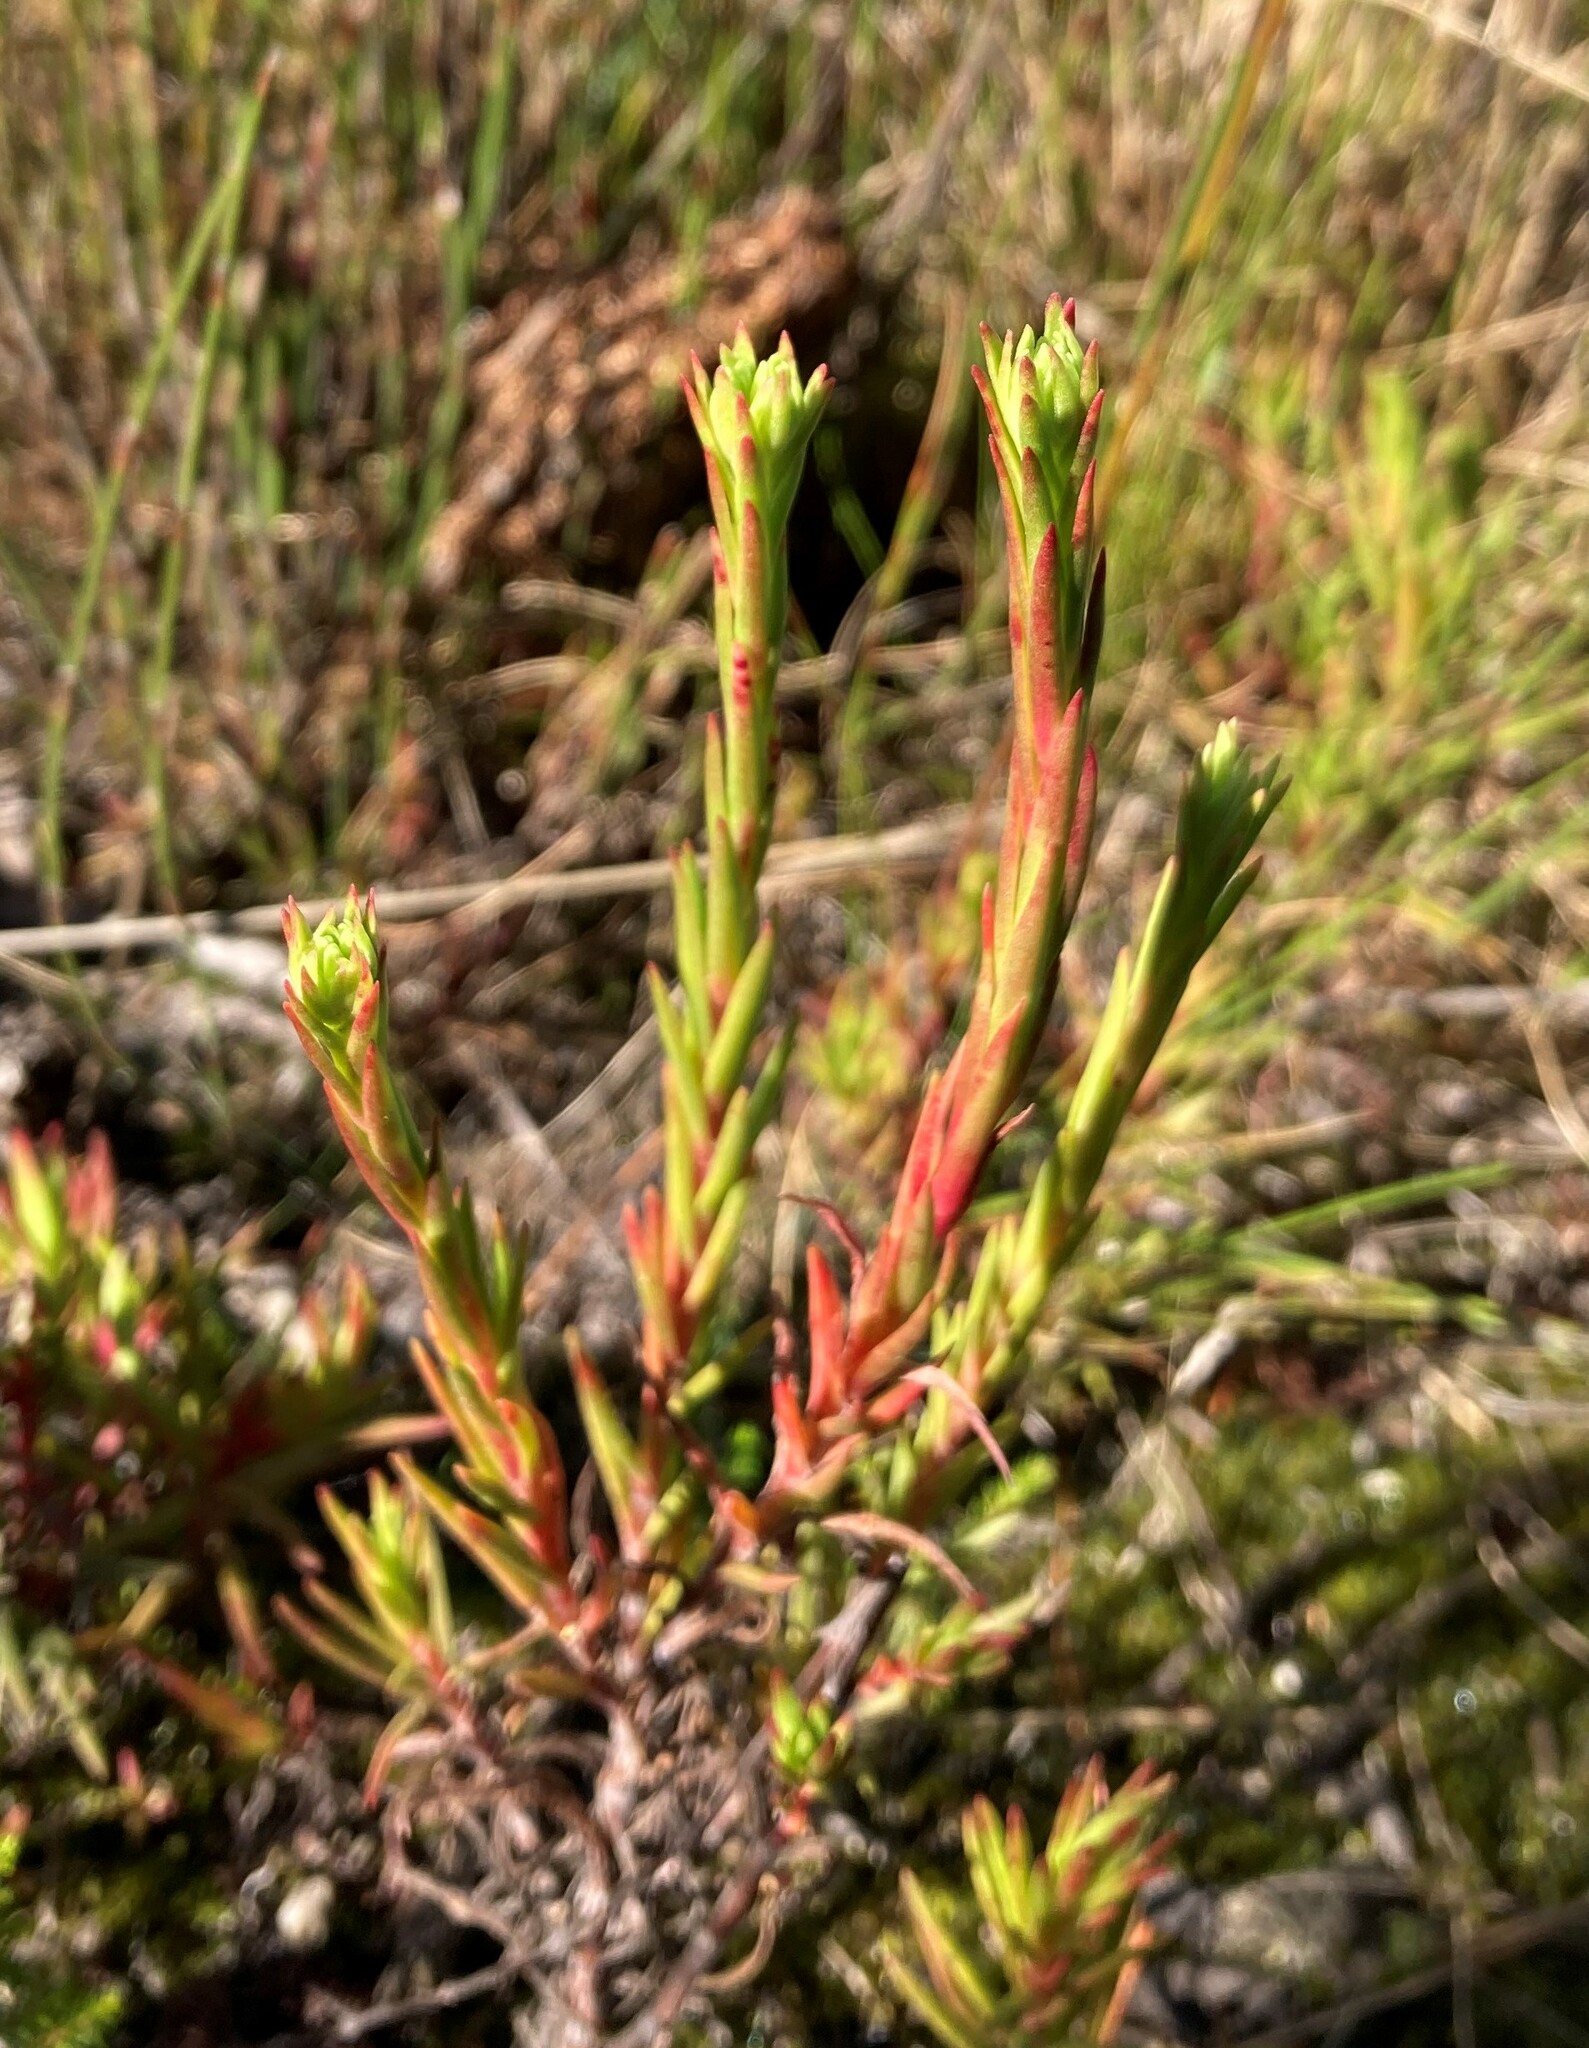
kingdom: Plantae
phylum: Tracheophyta
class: Magnoliopsida
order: Saxifragales
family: Crassulaceae
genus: Crassula
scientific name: Crassula subulata
